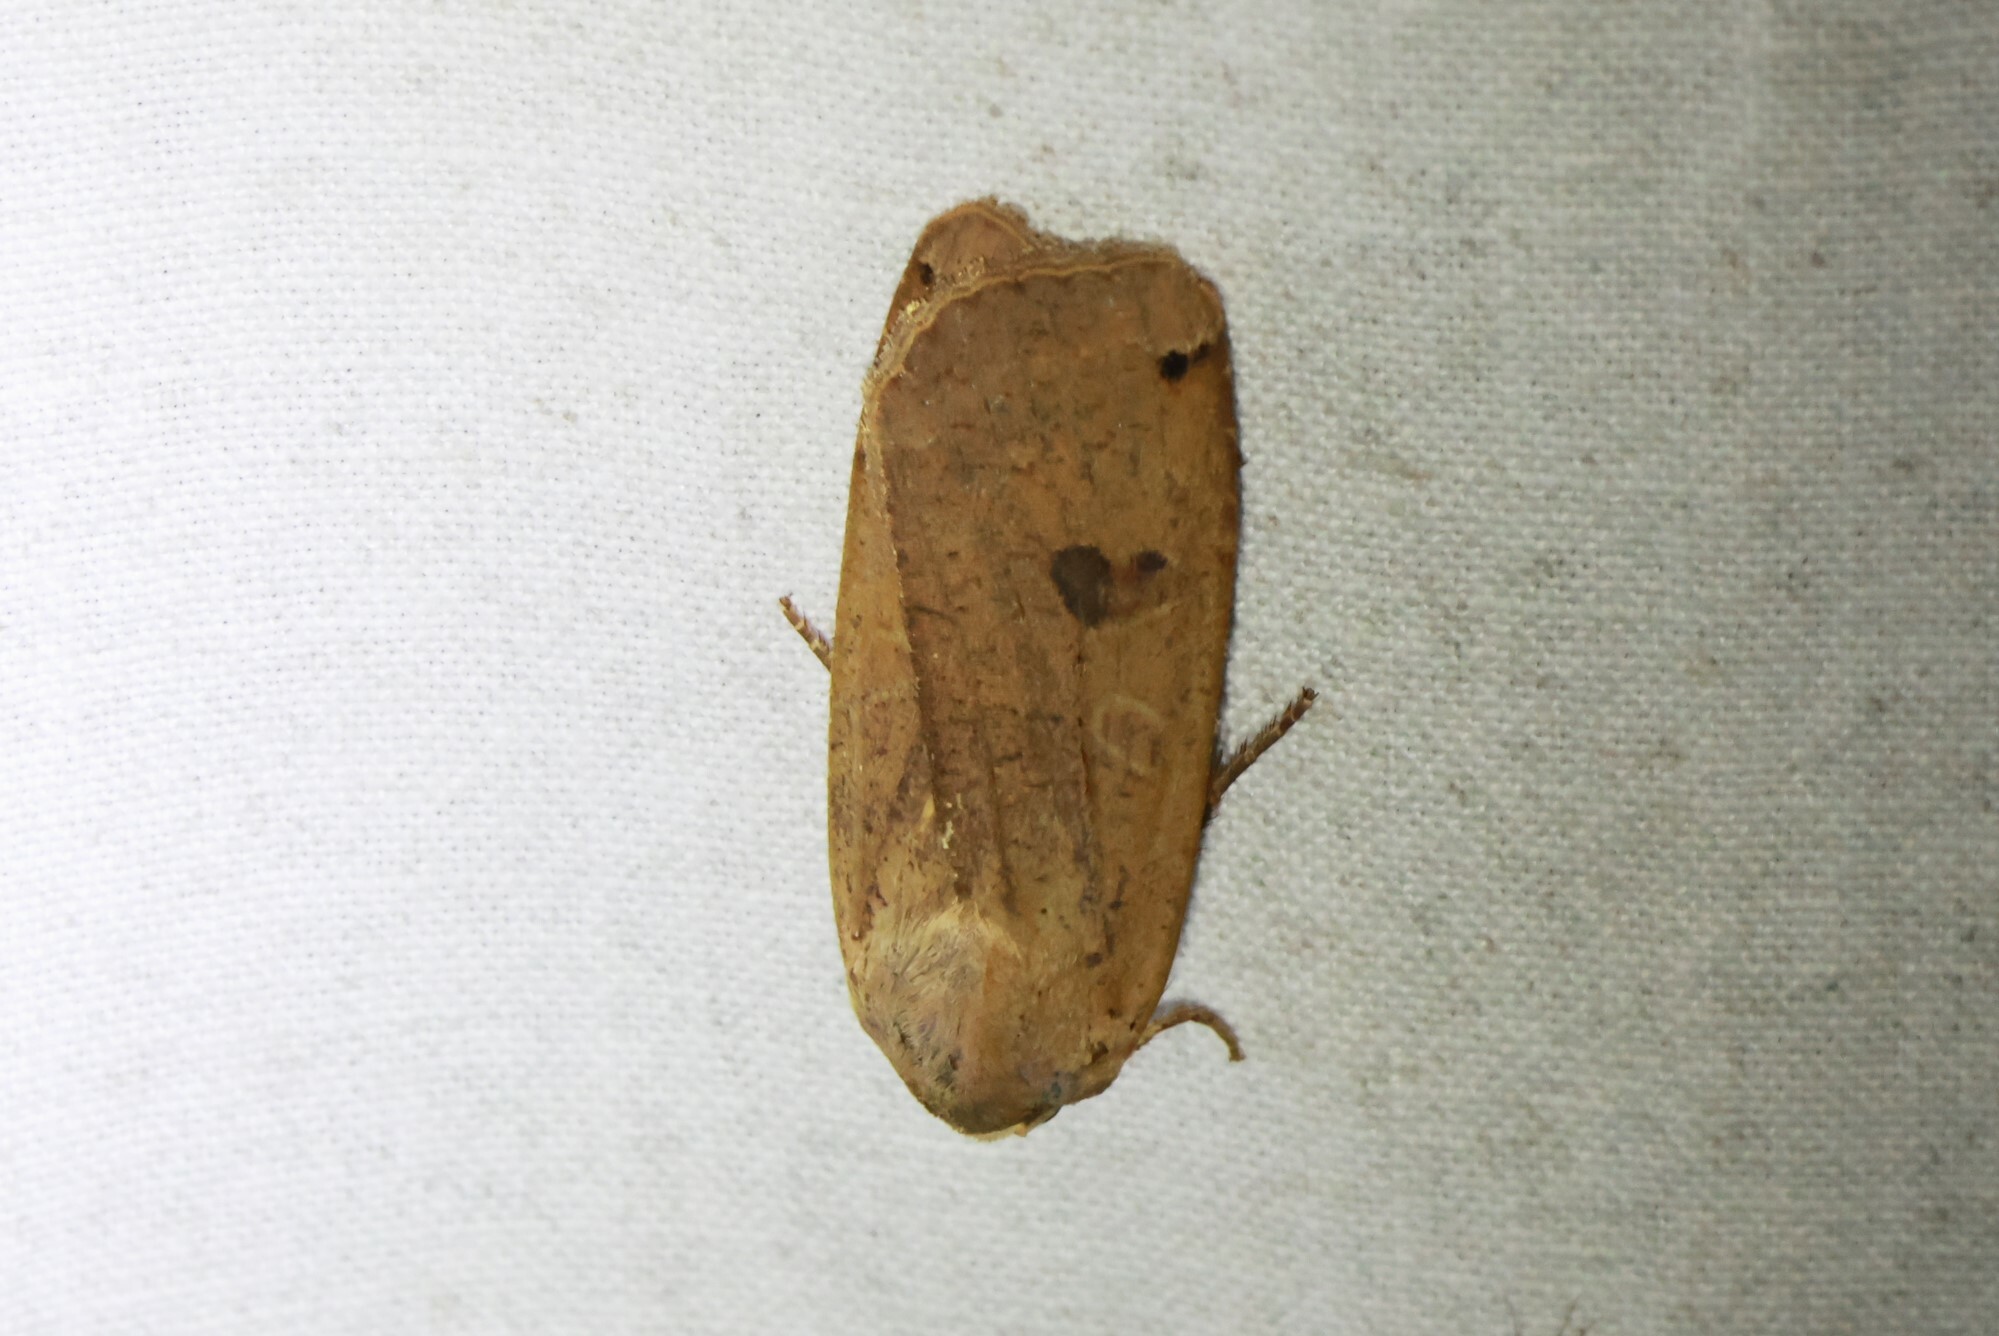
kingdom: Animalia
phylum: Arthropoda
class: Insecta
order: Lepidoptera
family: Noctuidae
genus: Noctua
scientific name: Noctua pronuba
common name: Large yellow underwing
